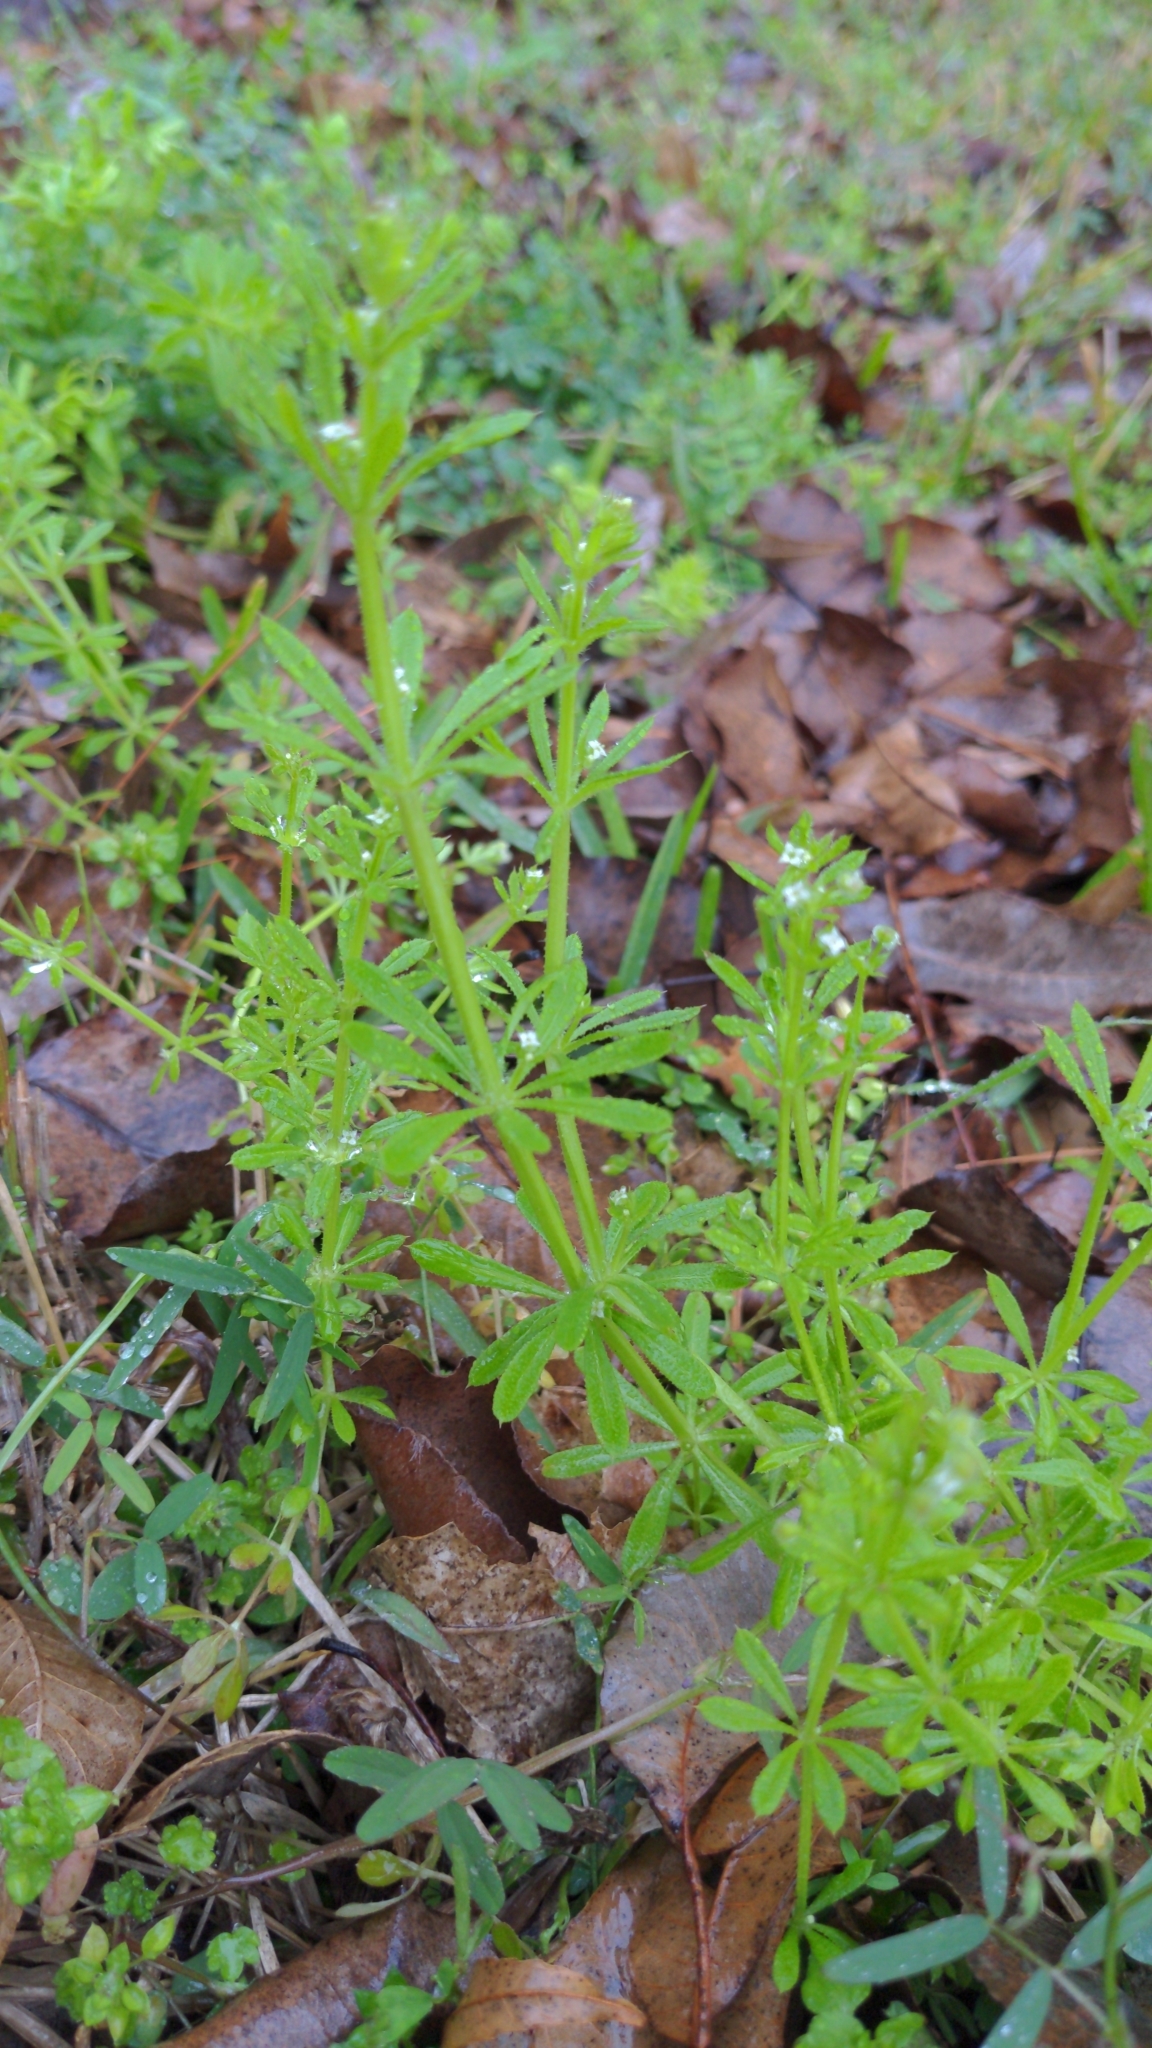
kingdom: Plantae
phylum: Tracheophyta
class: Magnoliopsida
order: Gentianales
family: Rubiaceae
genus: Galium
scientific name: Galium aparine
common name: Cleavers
